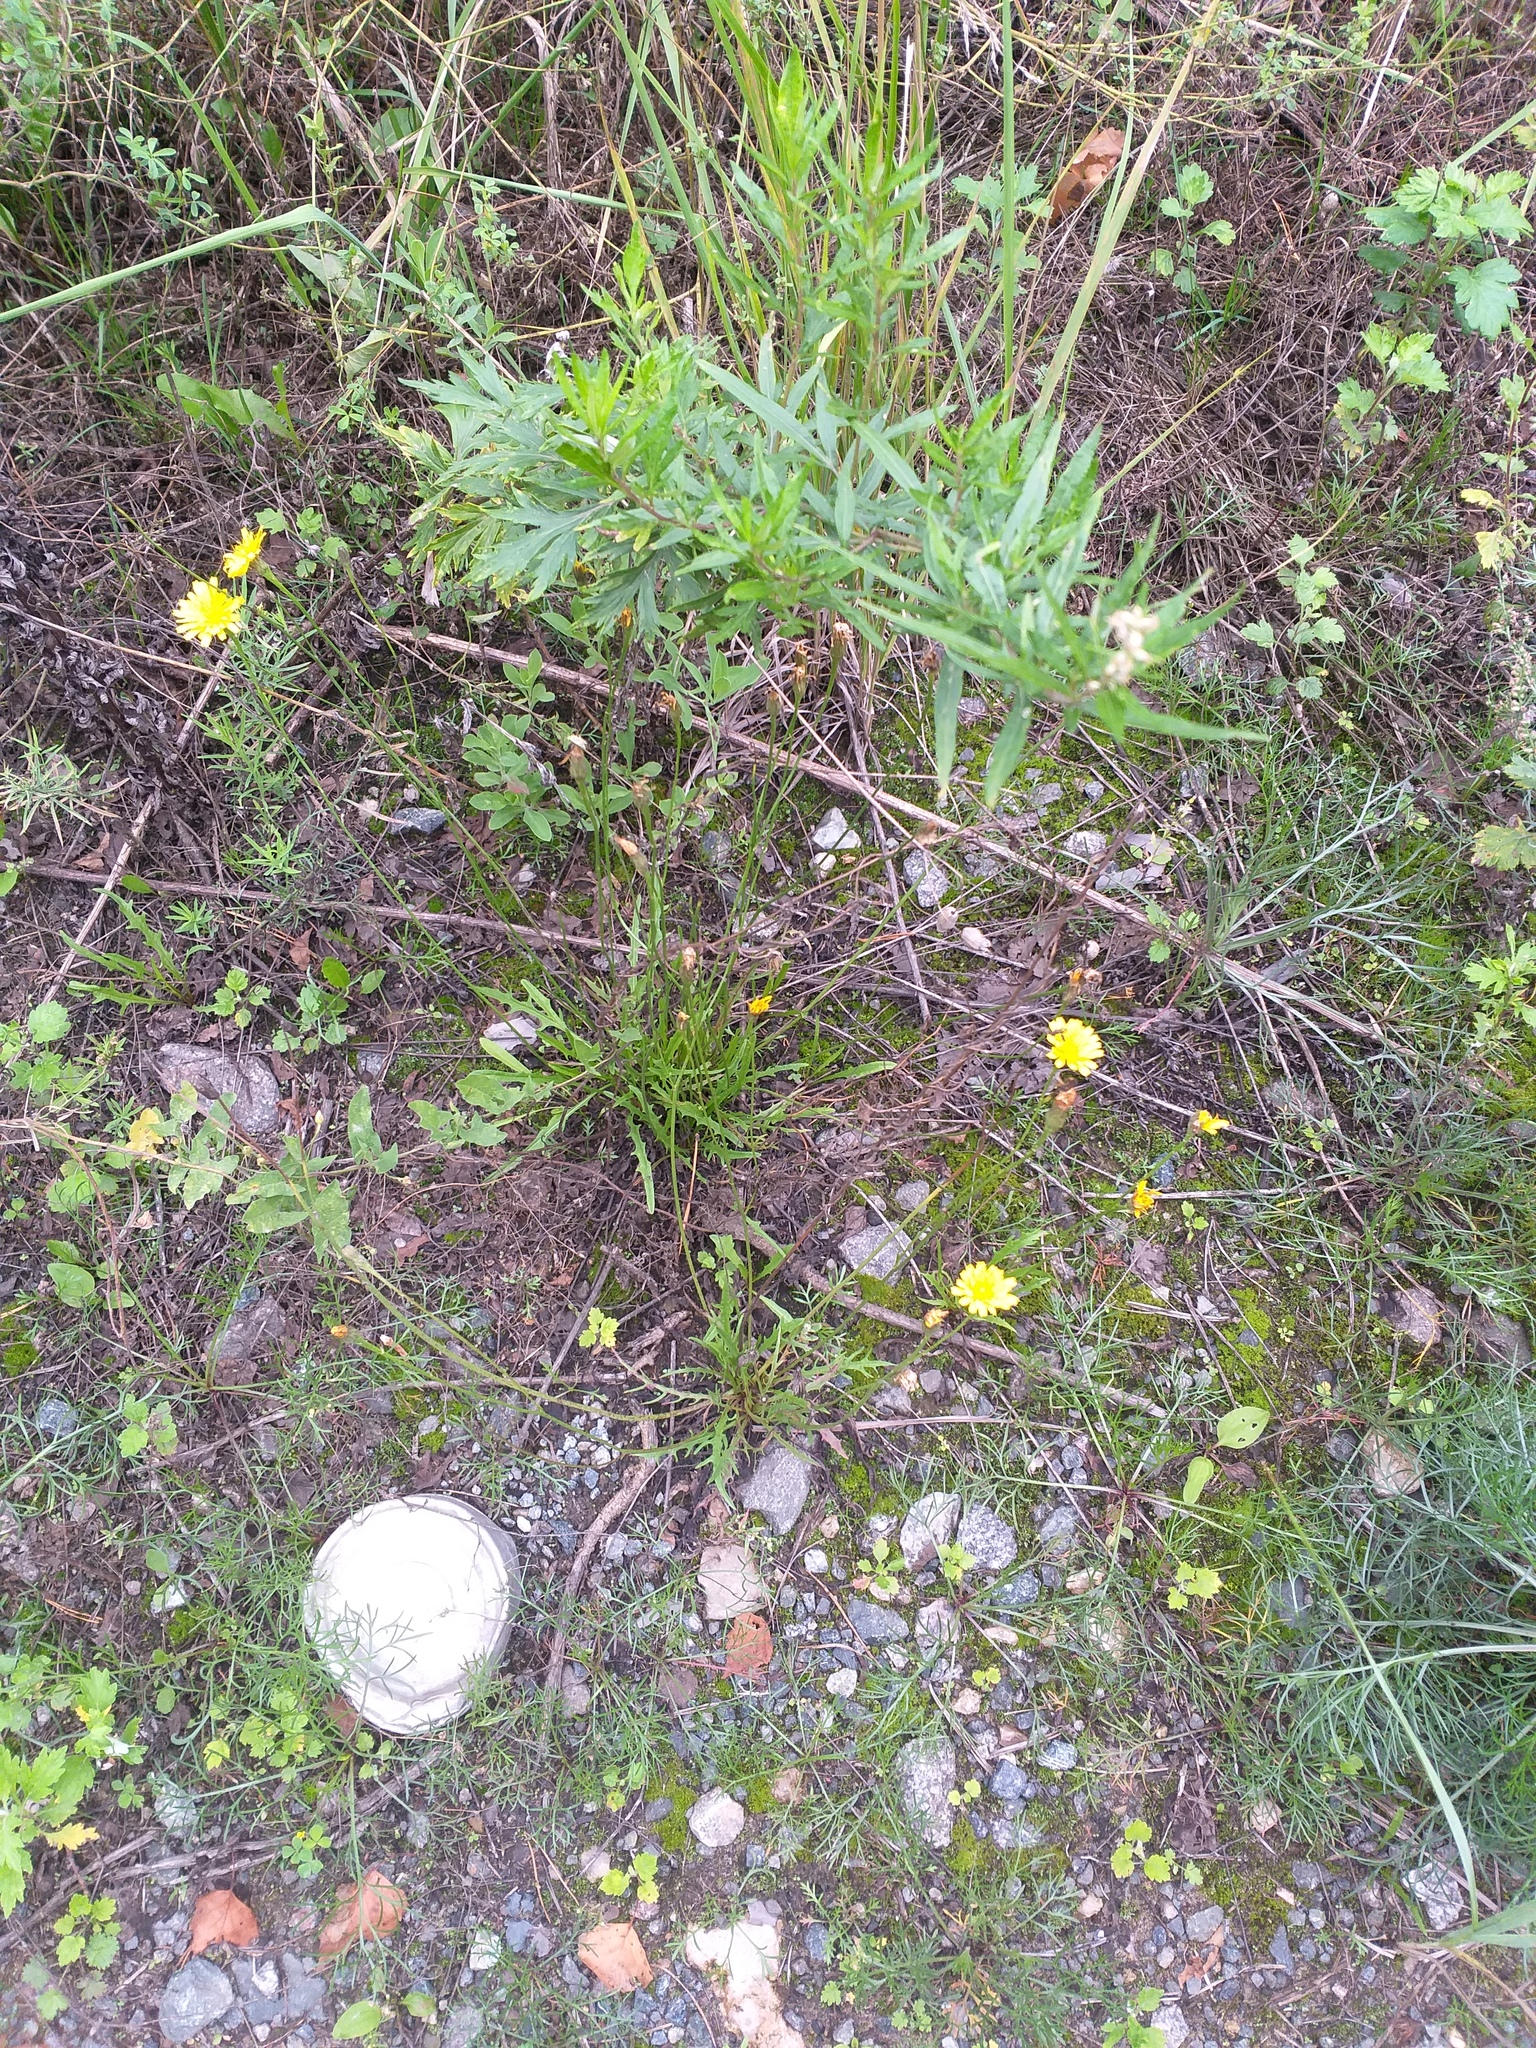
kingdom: Plantae
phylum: Tracheophyta
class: Magnoliopsida
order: Asterales
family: Asteraceae
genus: Scorzoneroides
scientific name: Scorzoneroides autumnalis
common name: Autumn hawkbit
